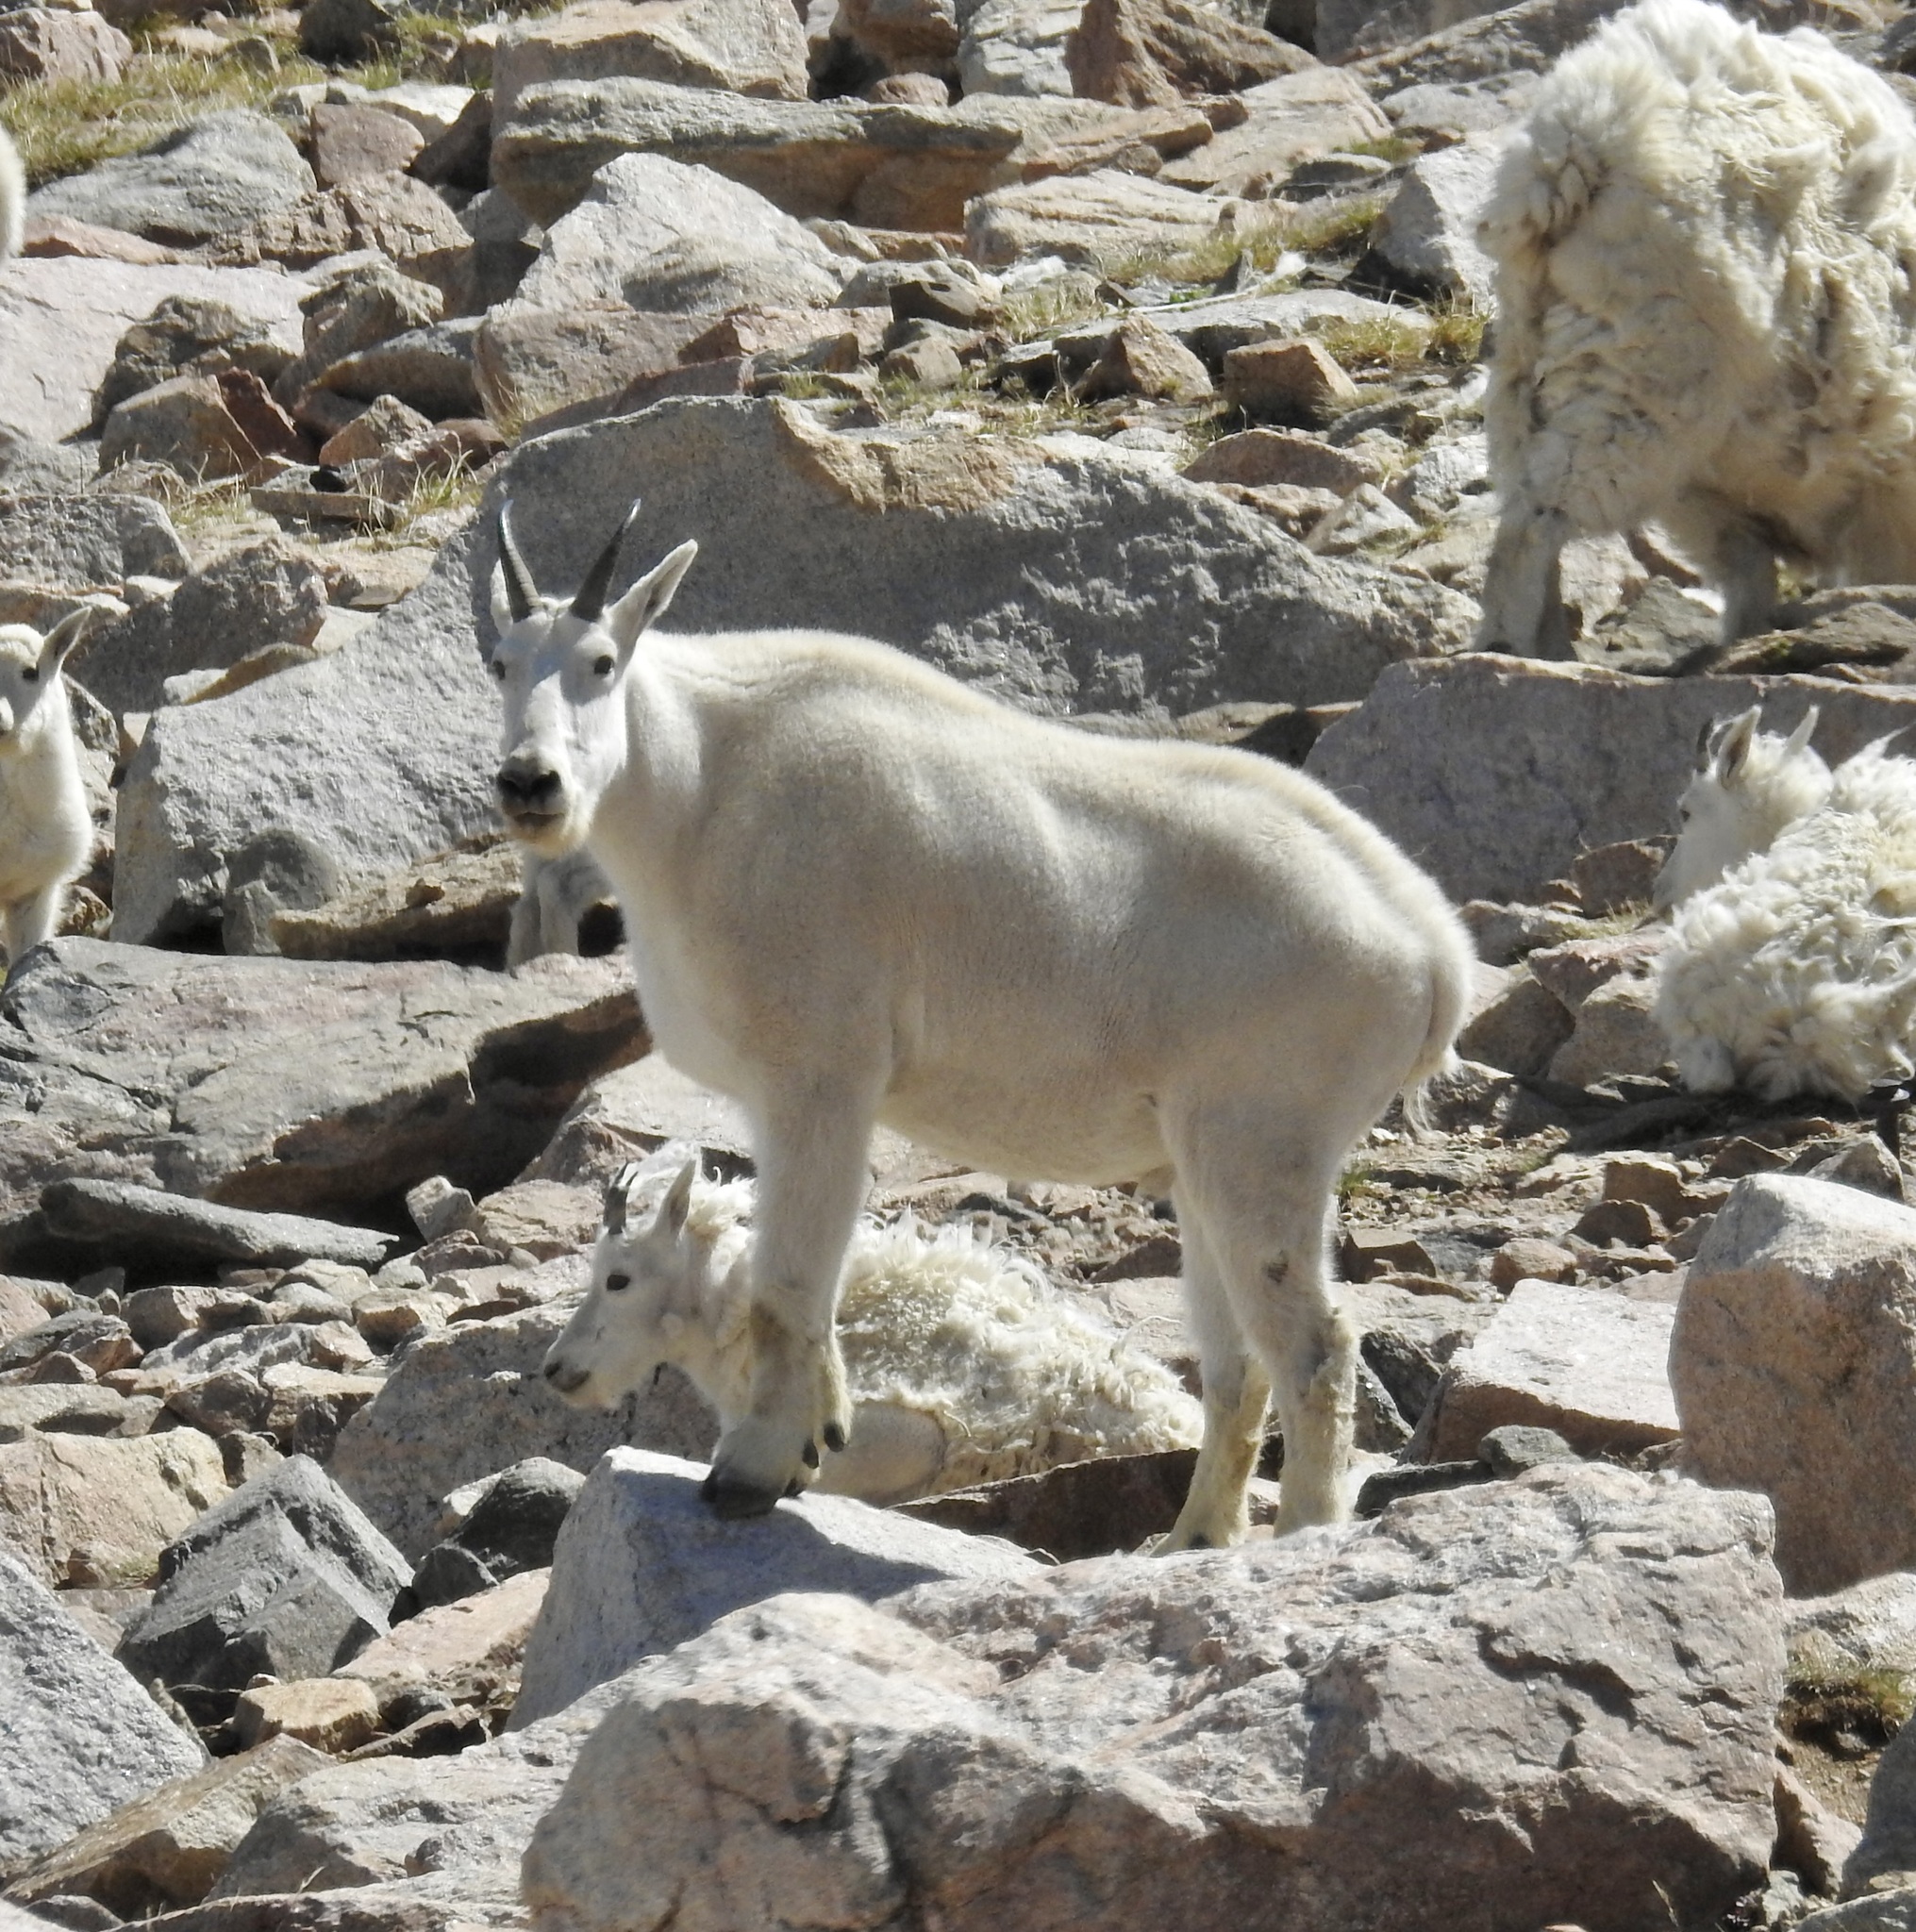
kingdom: Animalia
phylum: Chordata
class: Mammalia
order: Artiodactyla
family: Bovidae
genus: Oreamnos
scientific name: Oreamnos americanus
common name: Mountain goat
